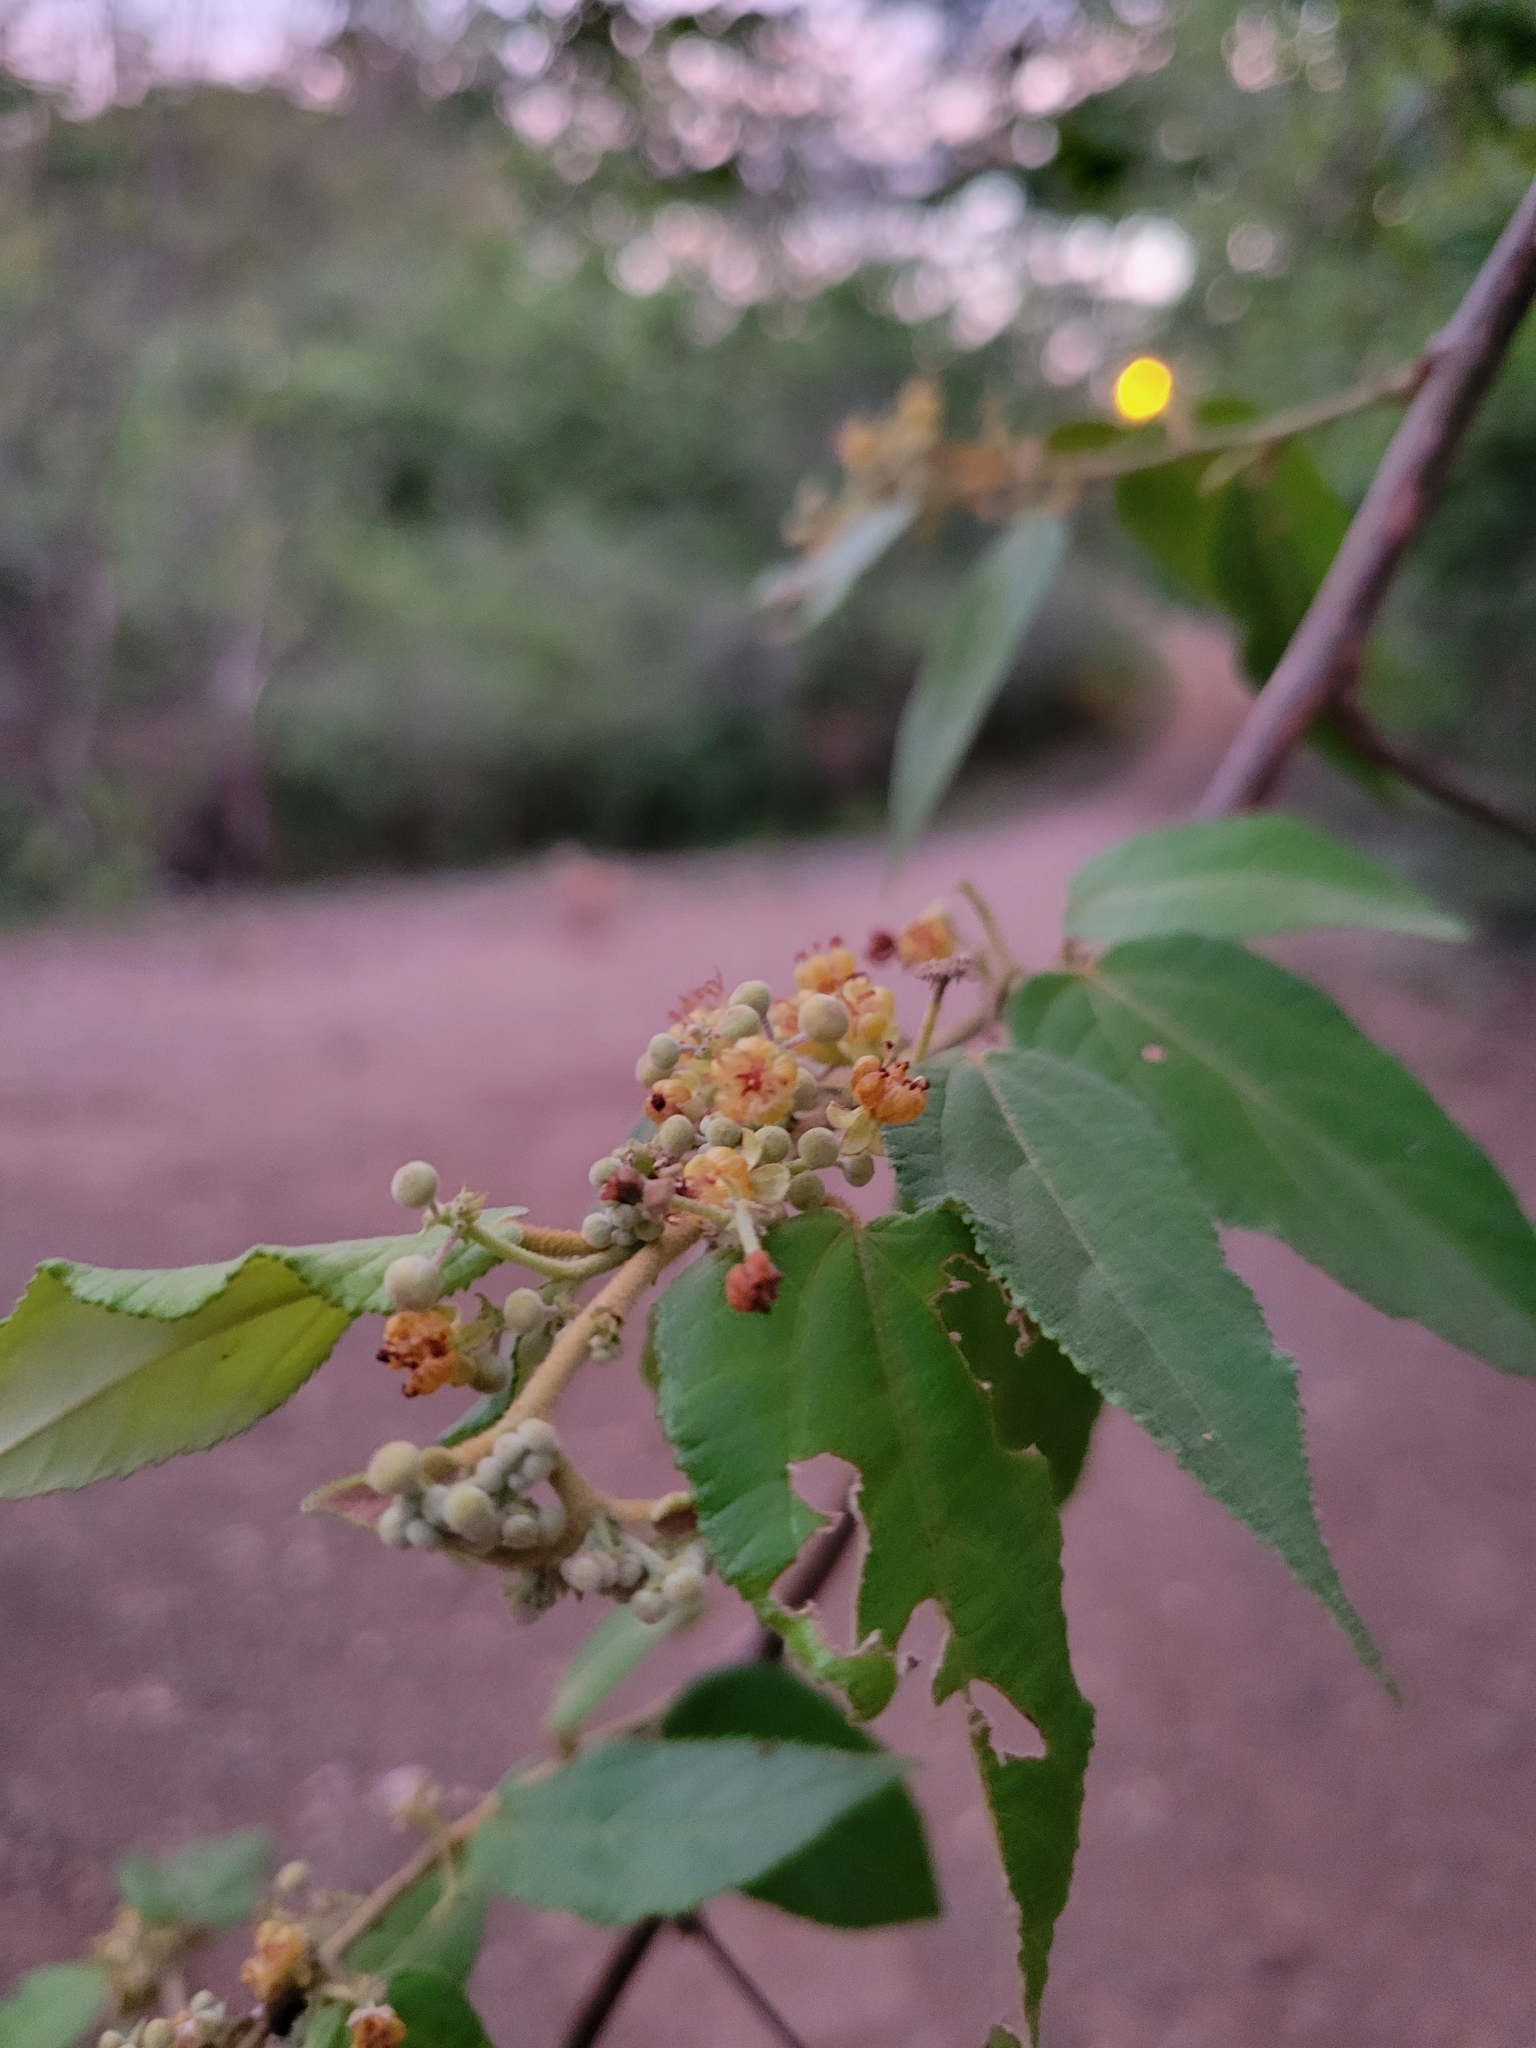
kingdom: Plantae
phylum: Tracheophyta
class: Magnoliopsida
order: Malvales
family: Malvaceae
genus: Guazuma
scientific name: Guazuma ulmifolia
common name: Bastard-cedar
